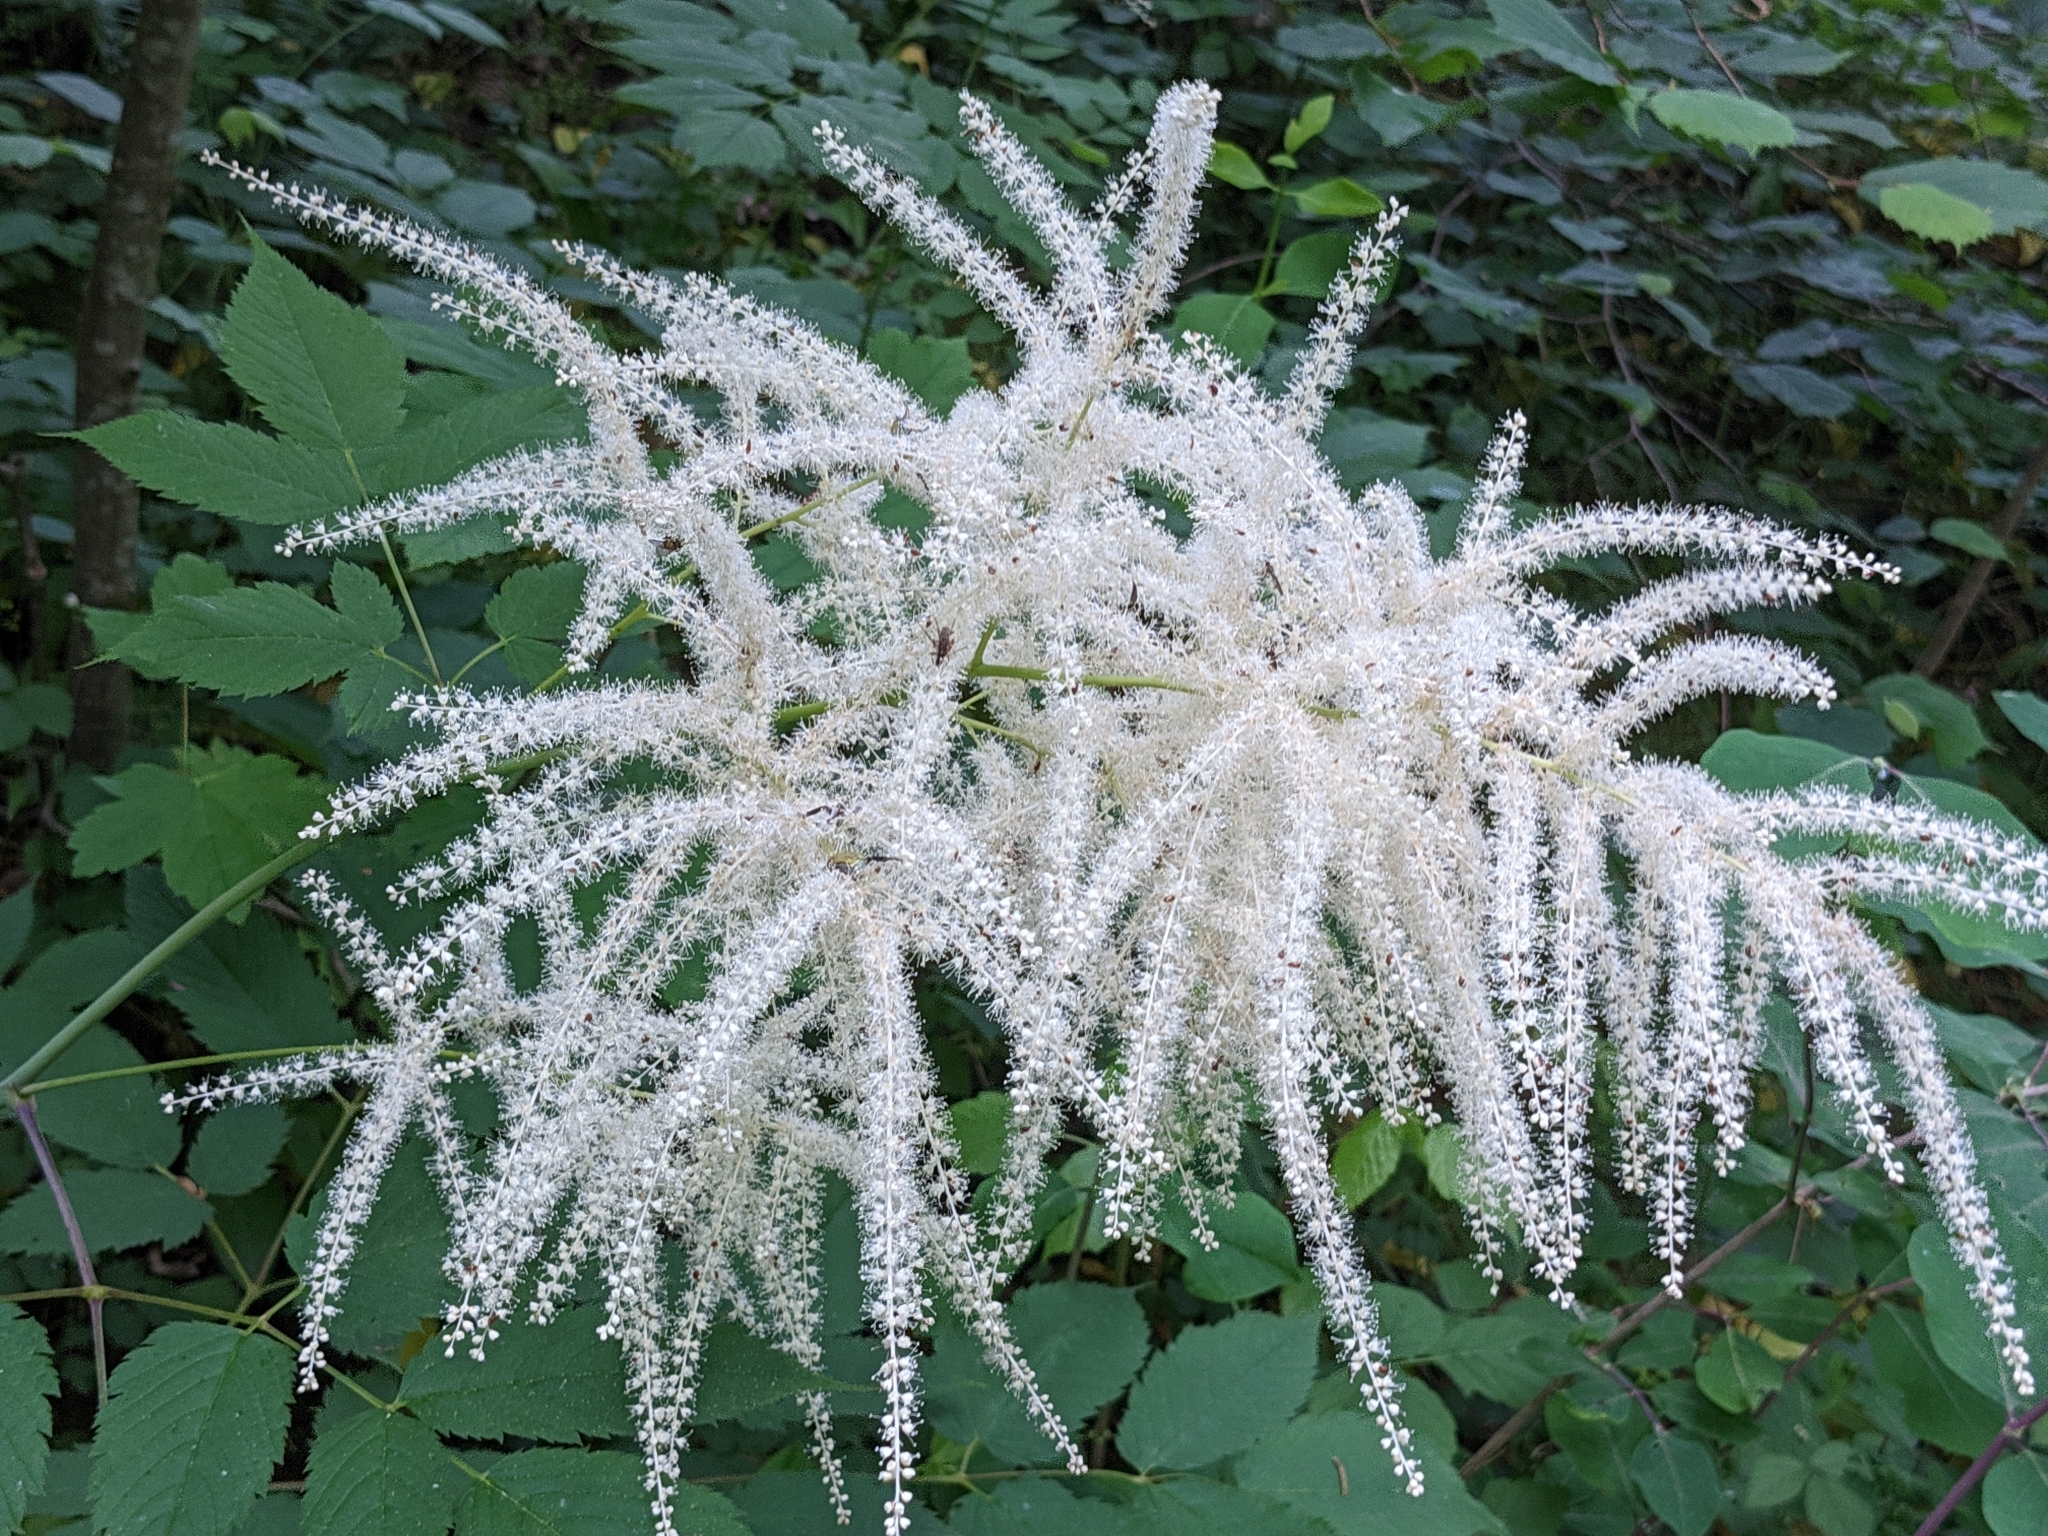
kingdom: Plantae
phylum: Tracheophyta
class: Magnoliopsida
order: Rosales
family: Rosaceae
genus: Aruncus
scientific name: Aruncus dioicus
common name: Buck's-beard
